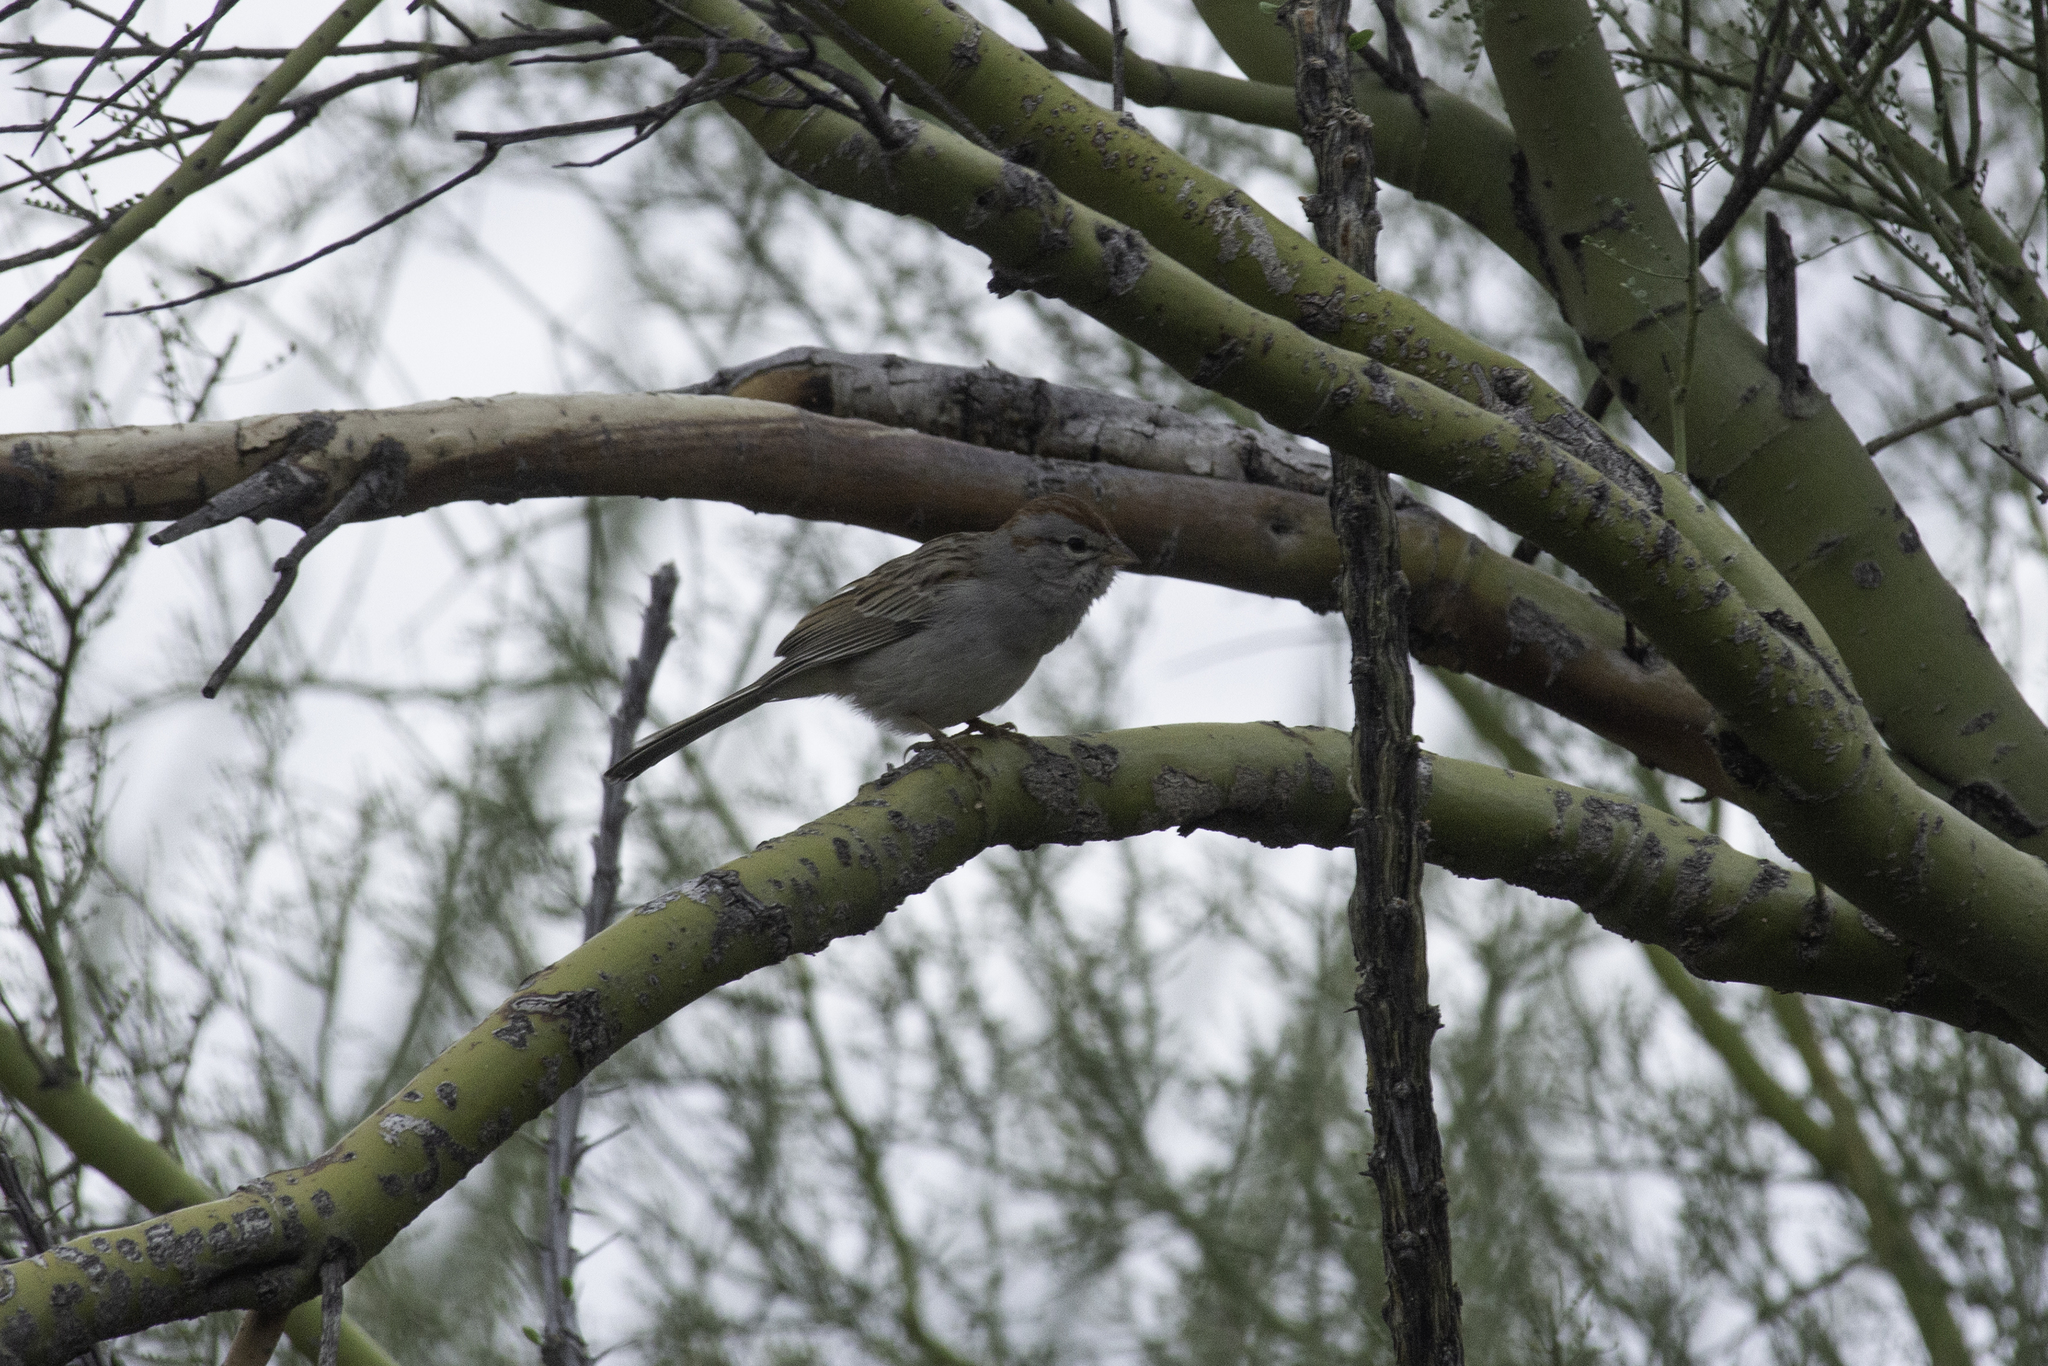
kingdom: Animalia
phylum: Chordata
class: Aves
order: Passeriformes
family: Passerellidae
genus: Peucaea
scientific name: Peucaea carpalis
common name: Rufous-winged sparrow
